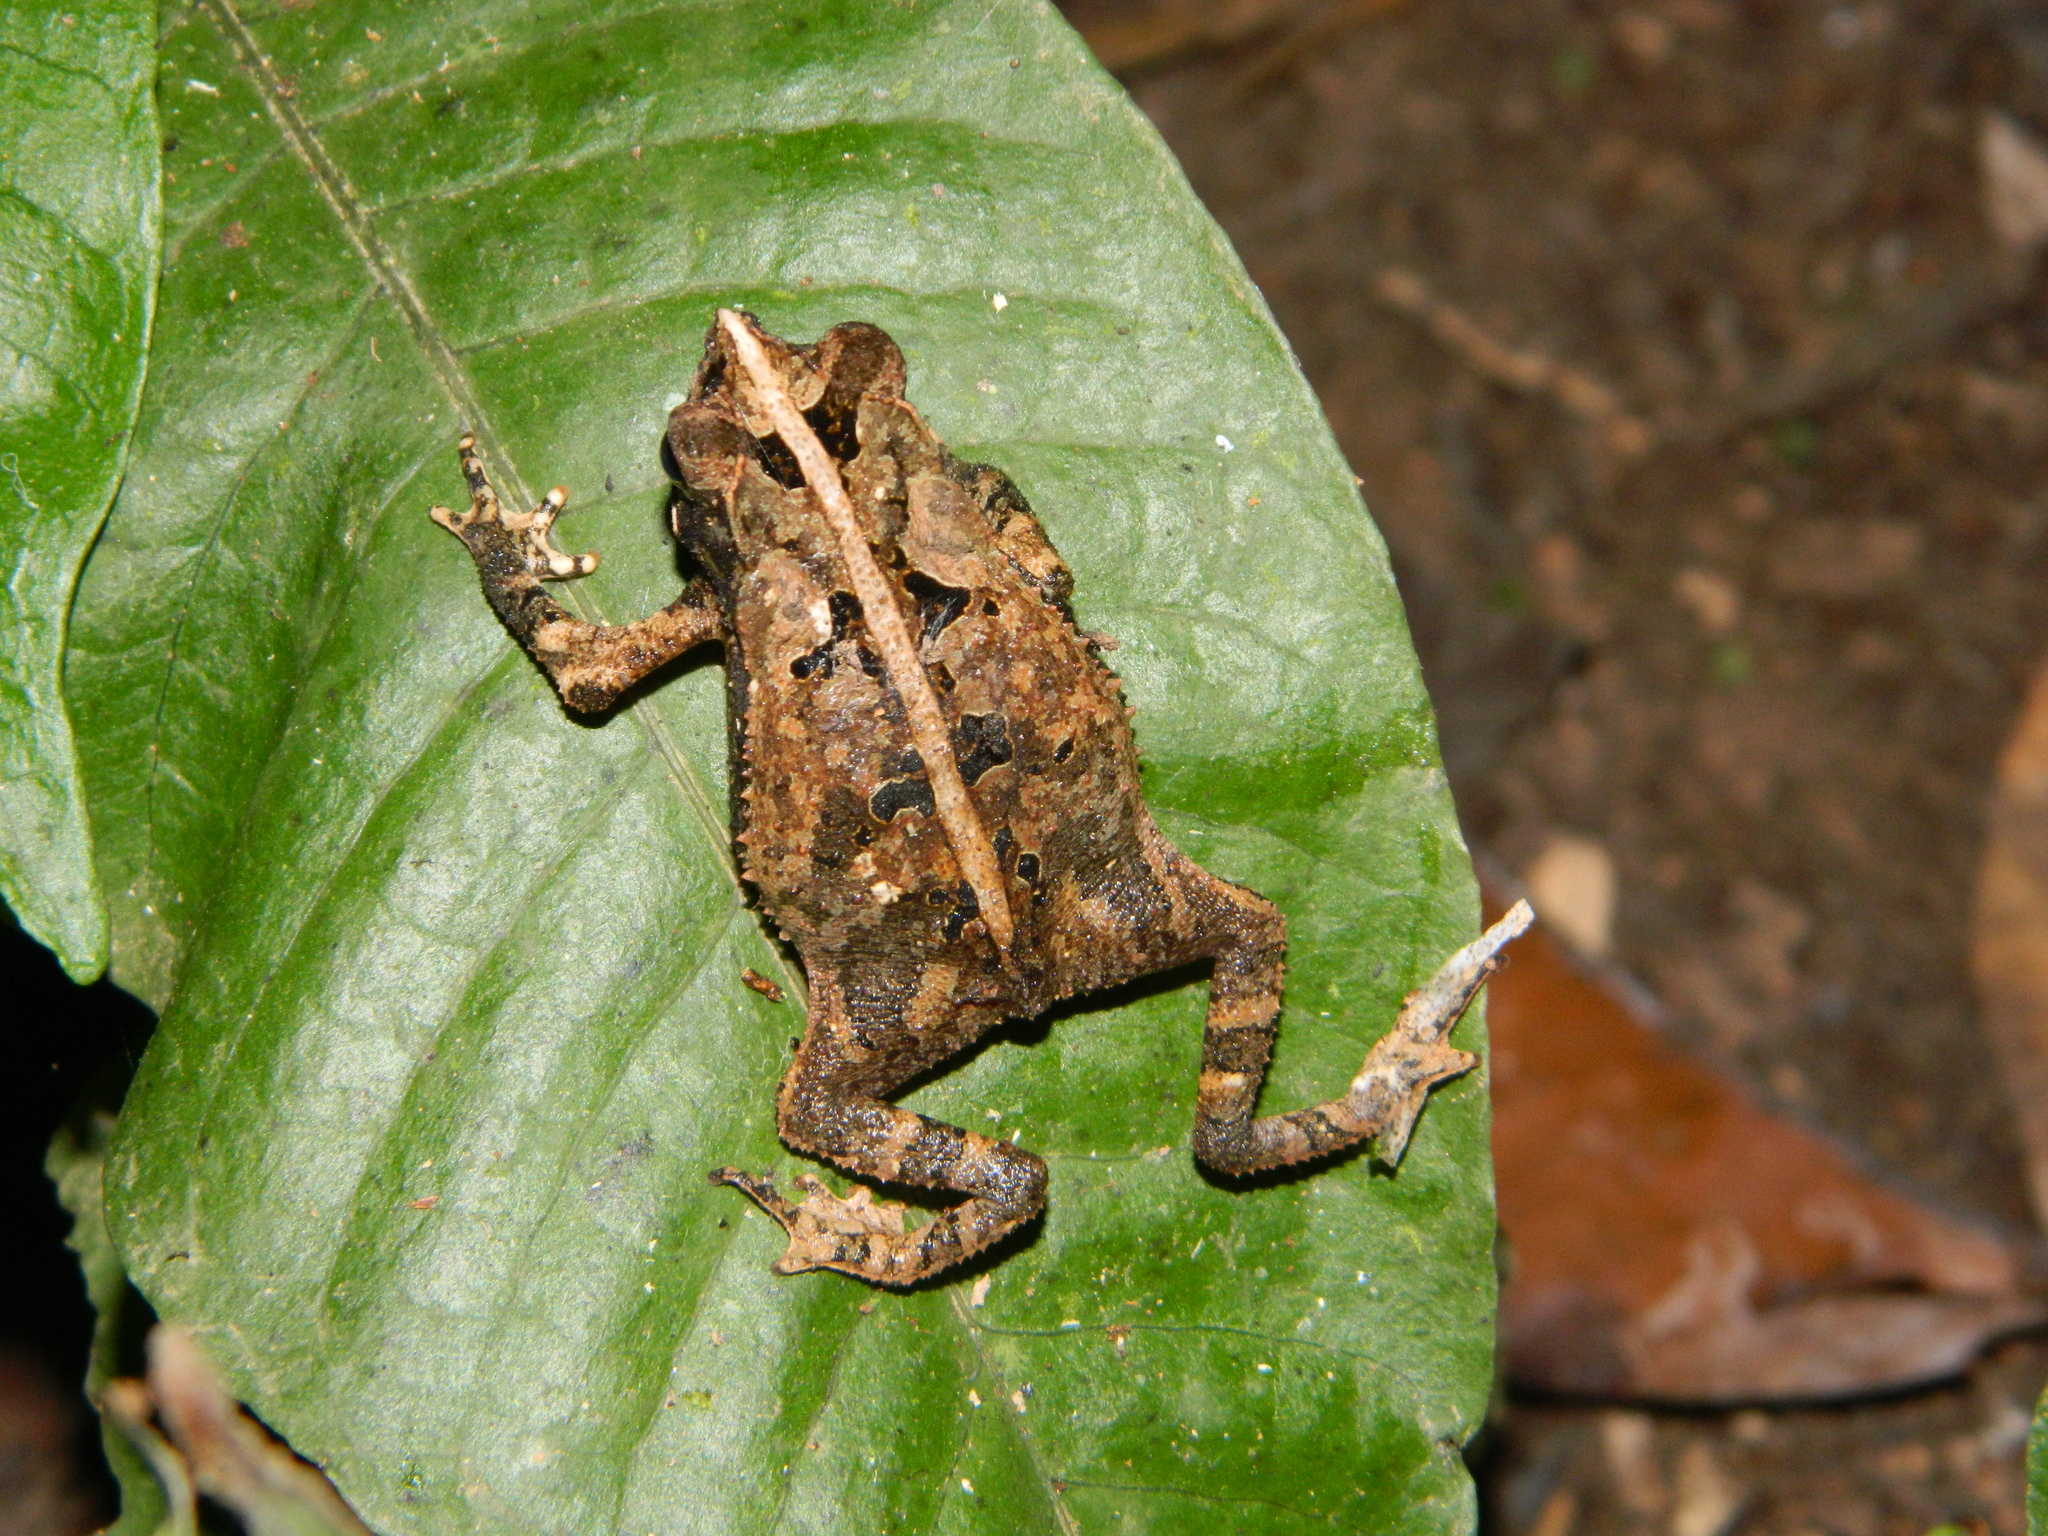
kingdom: Animalia
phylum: Chordata
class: Amphibia
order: Anura
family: Bufonidae
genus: Rhinella
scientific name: Rhinella margaritifera
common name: Mitred toad
